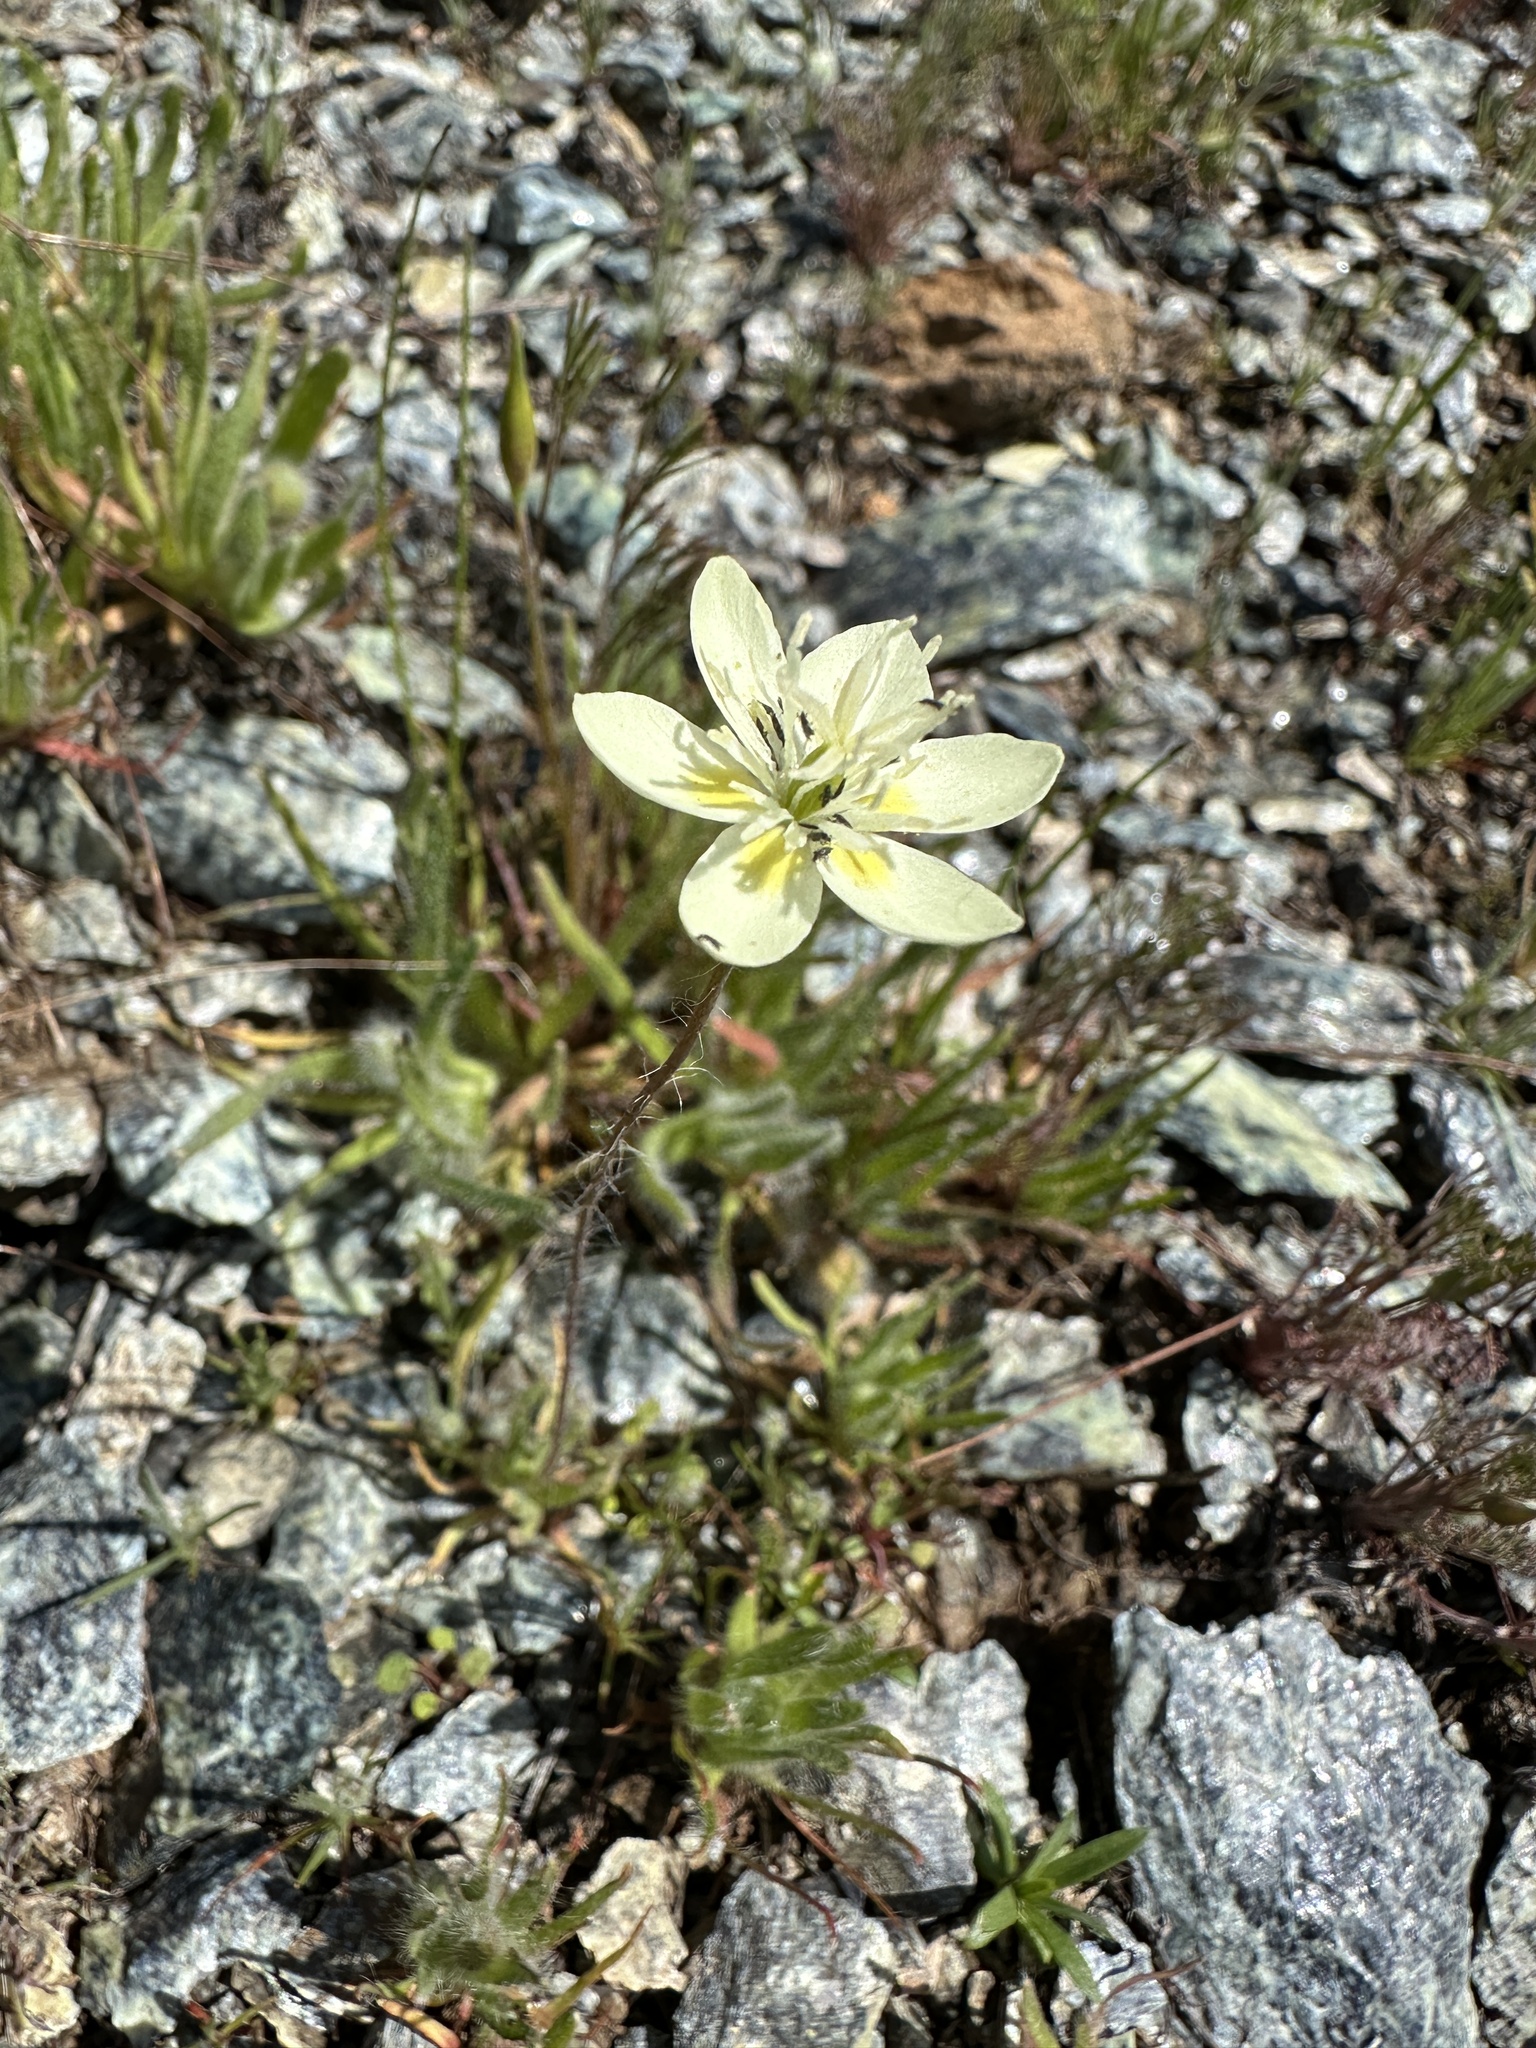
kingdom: Plantae
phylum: Tracheophyta
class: Magnoliopsida
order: Ranunculales
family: Papaveraceae
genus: Platystemon
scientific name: Platystemon californicus
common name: Cream-cups
